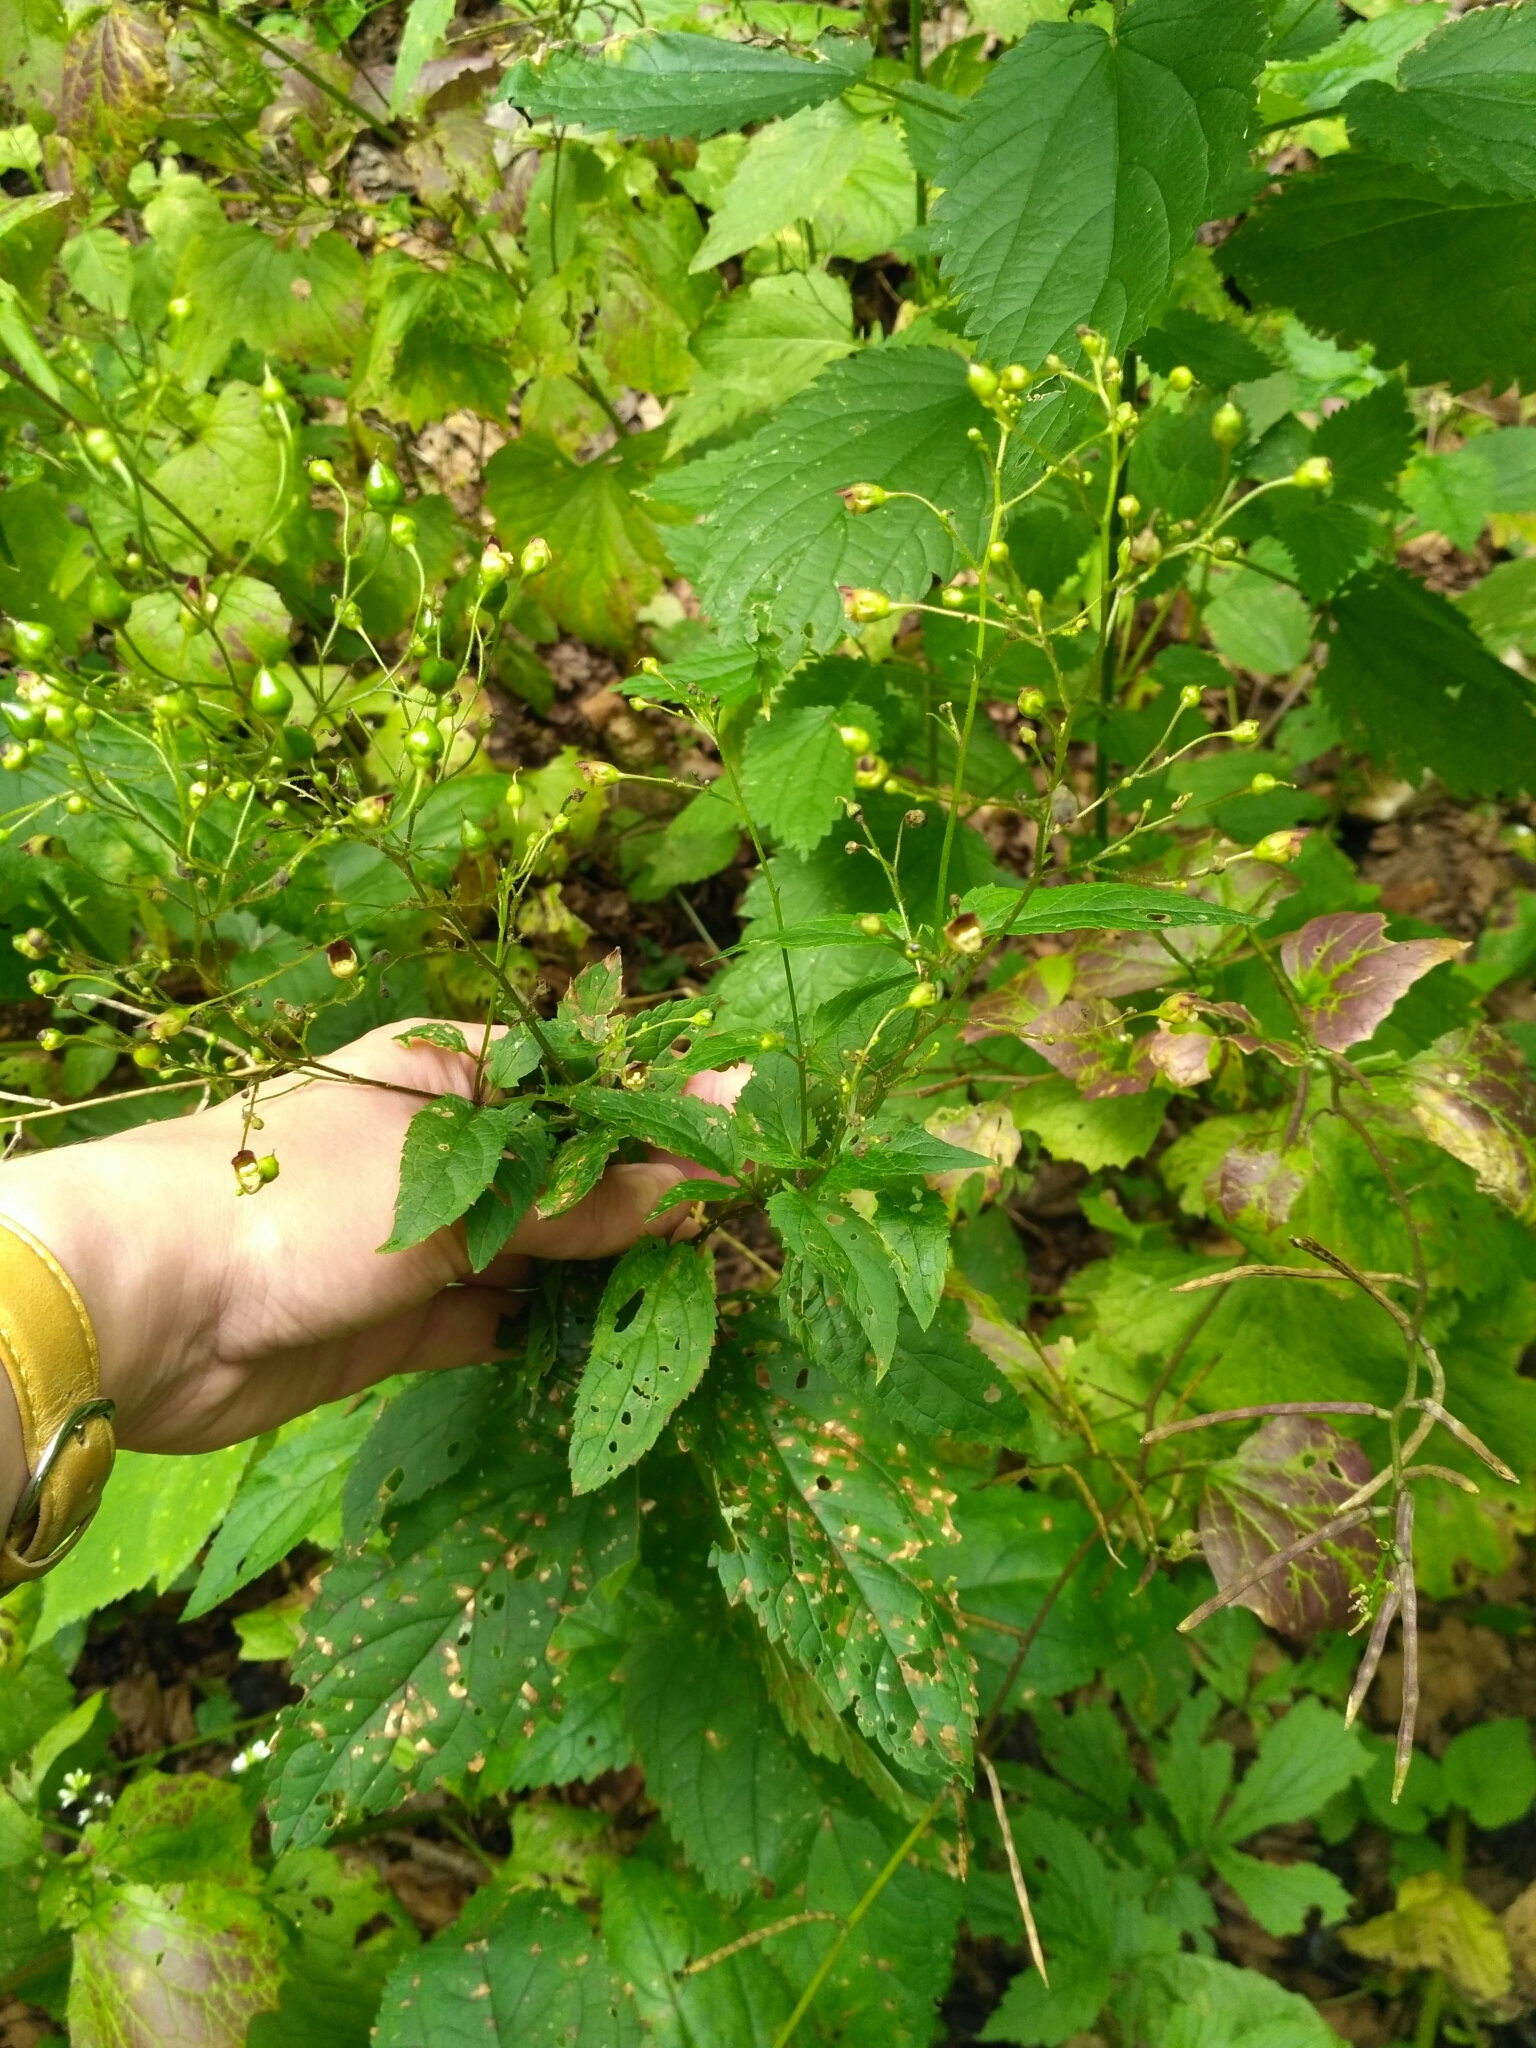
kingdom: Plantae
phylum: Tracheophyta
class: Magnoliopsida
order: Lamiales
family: Scrophulariaceae
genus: Scrophularia
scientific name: Scrophularia nodosa
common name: Common figwort
